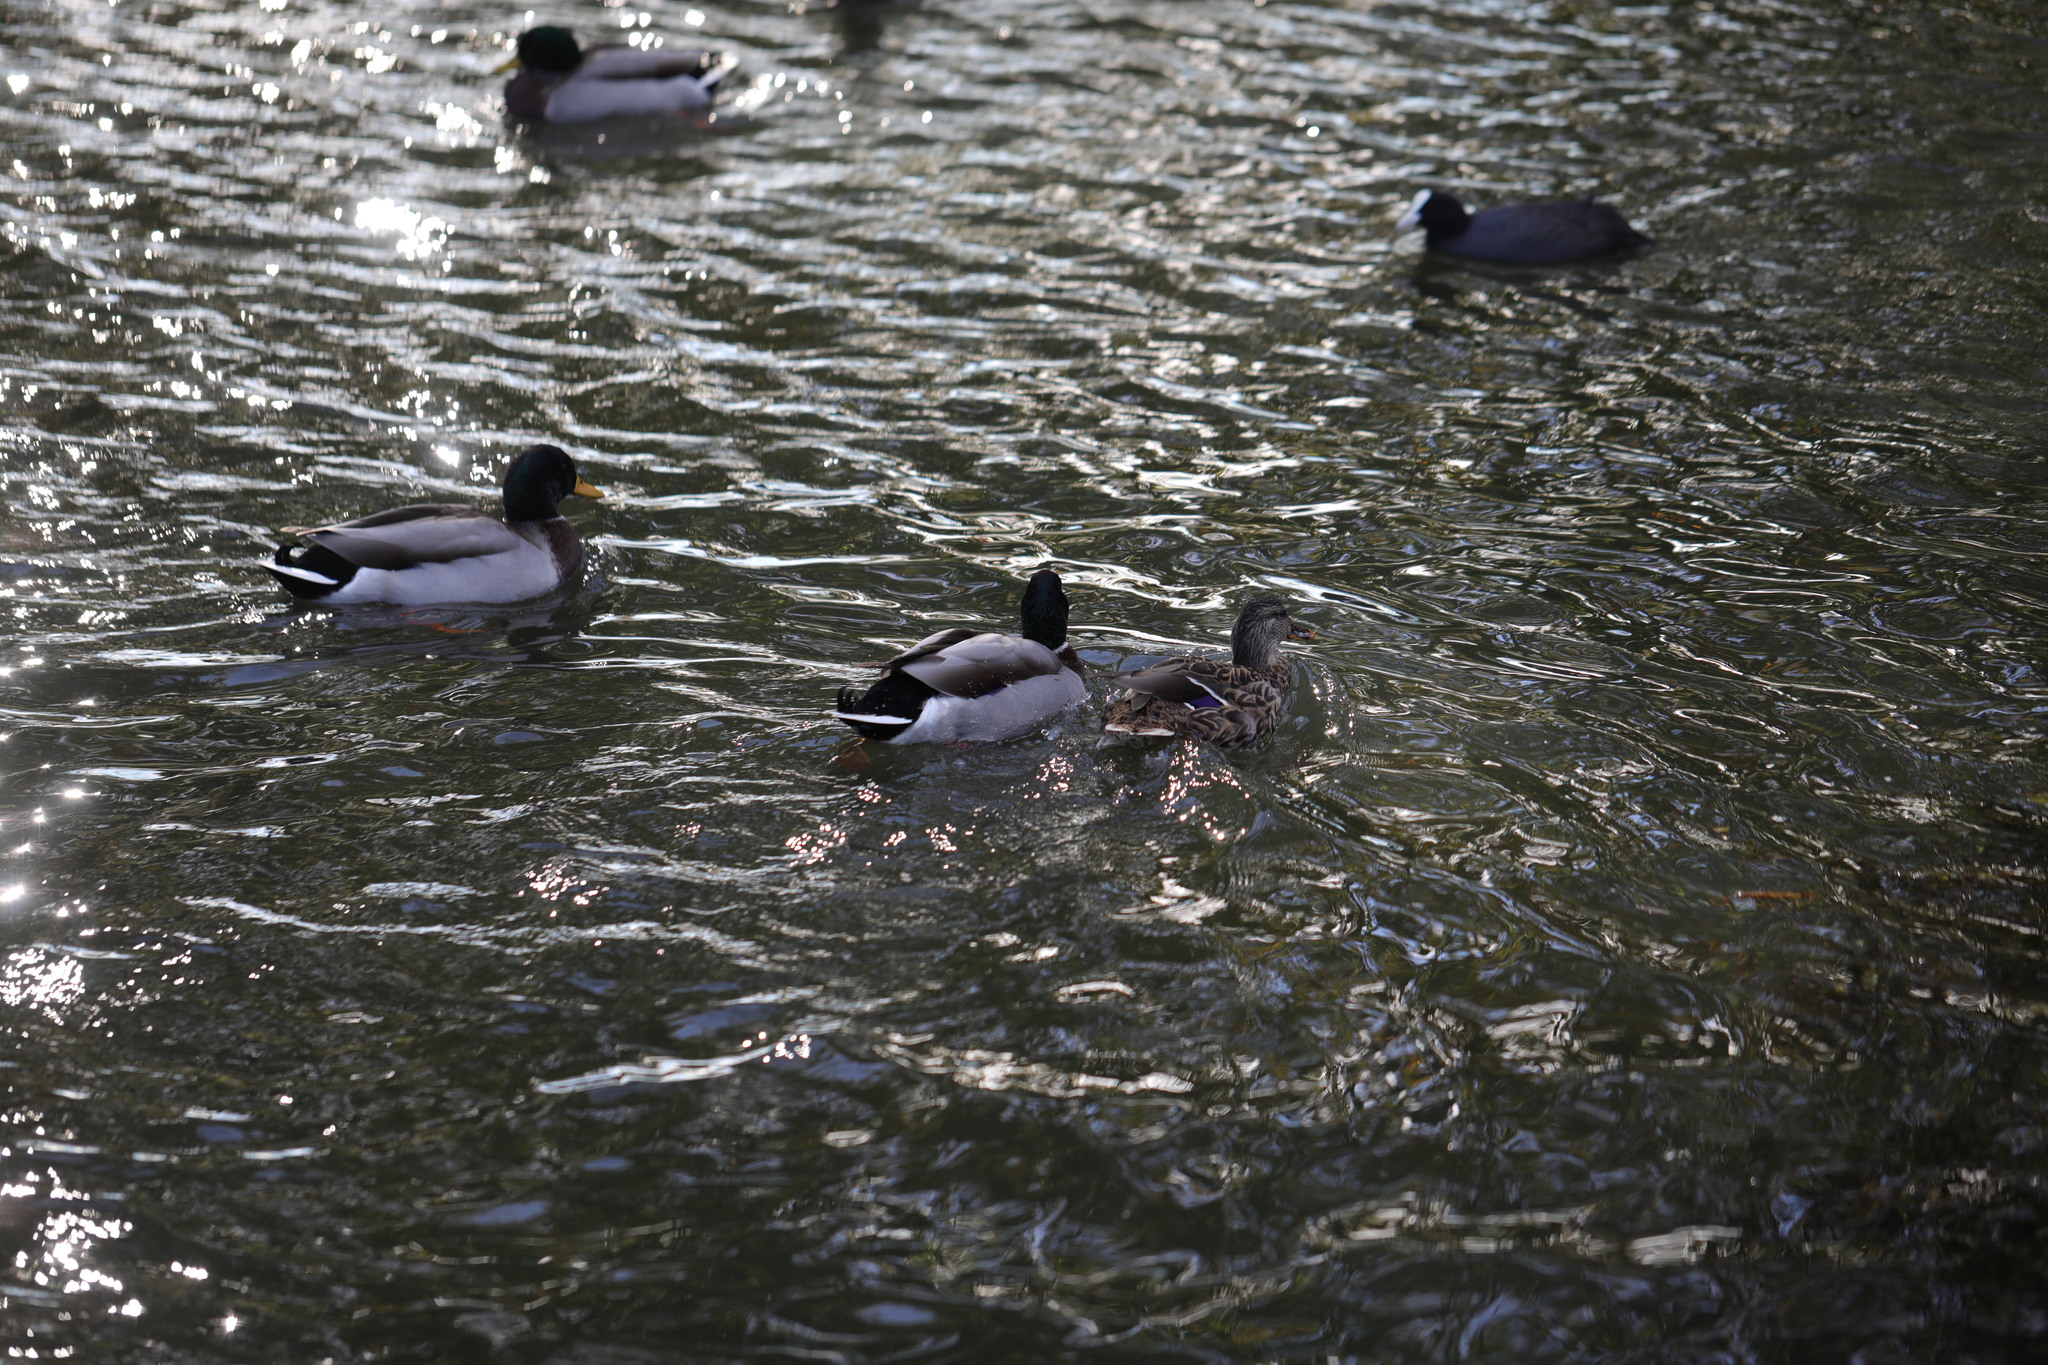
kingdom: Animalia
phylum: Chordata
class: Aves
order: Anseriformes
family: Anatidae
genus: Anas
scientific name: Anas platyrhynchos
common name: Mallard
